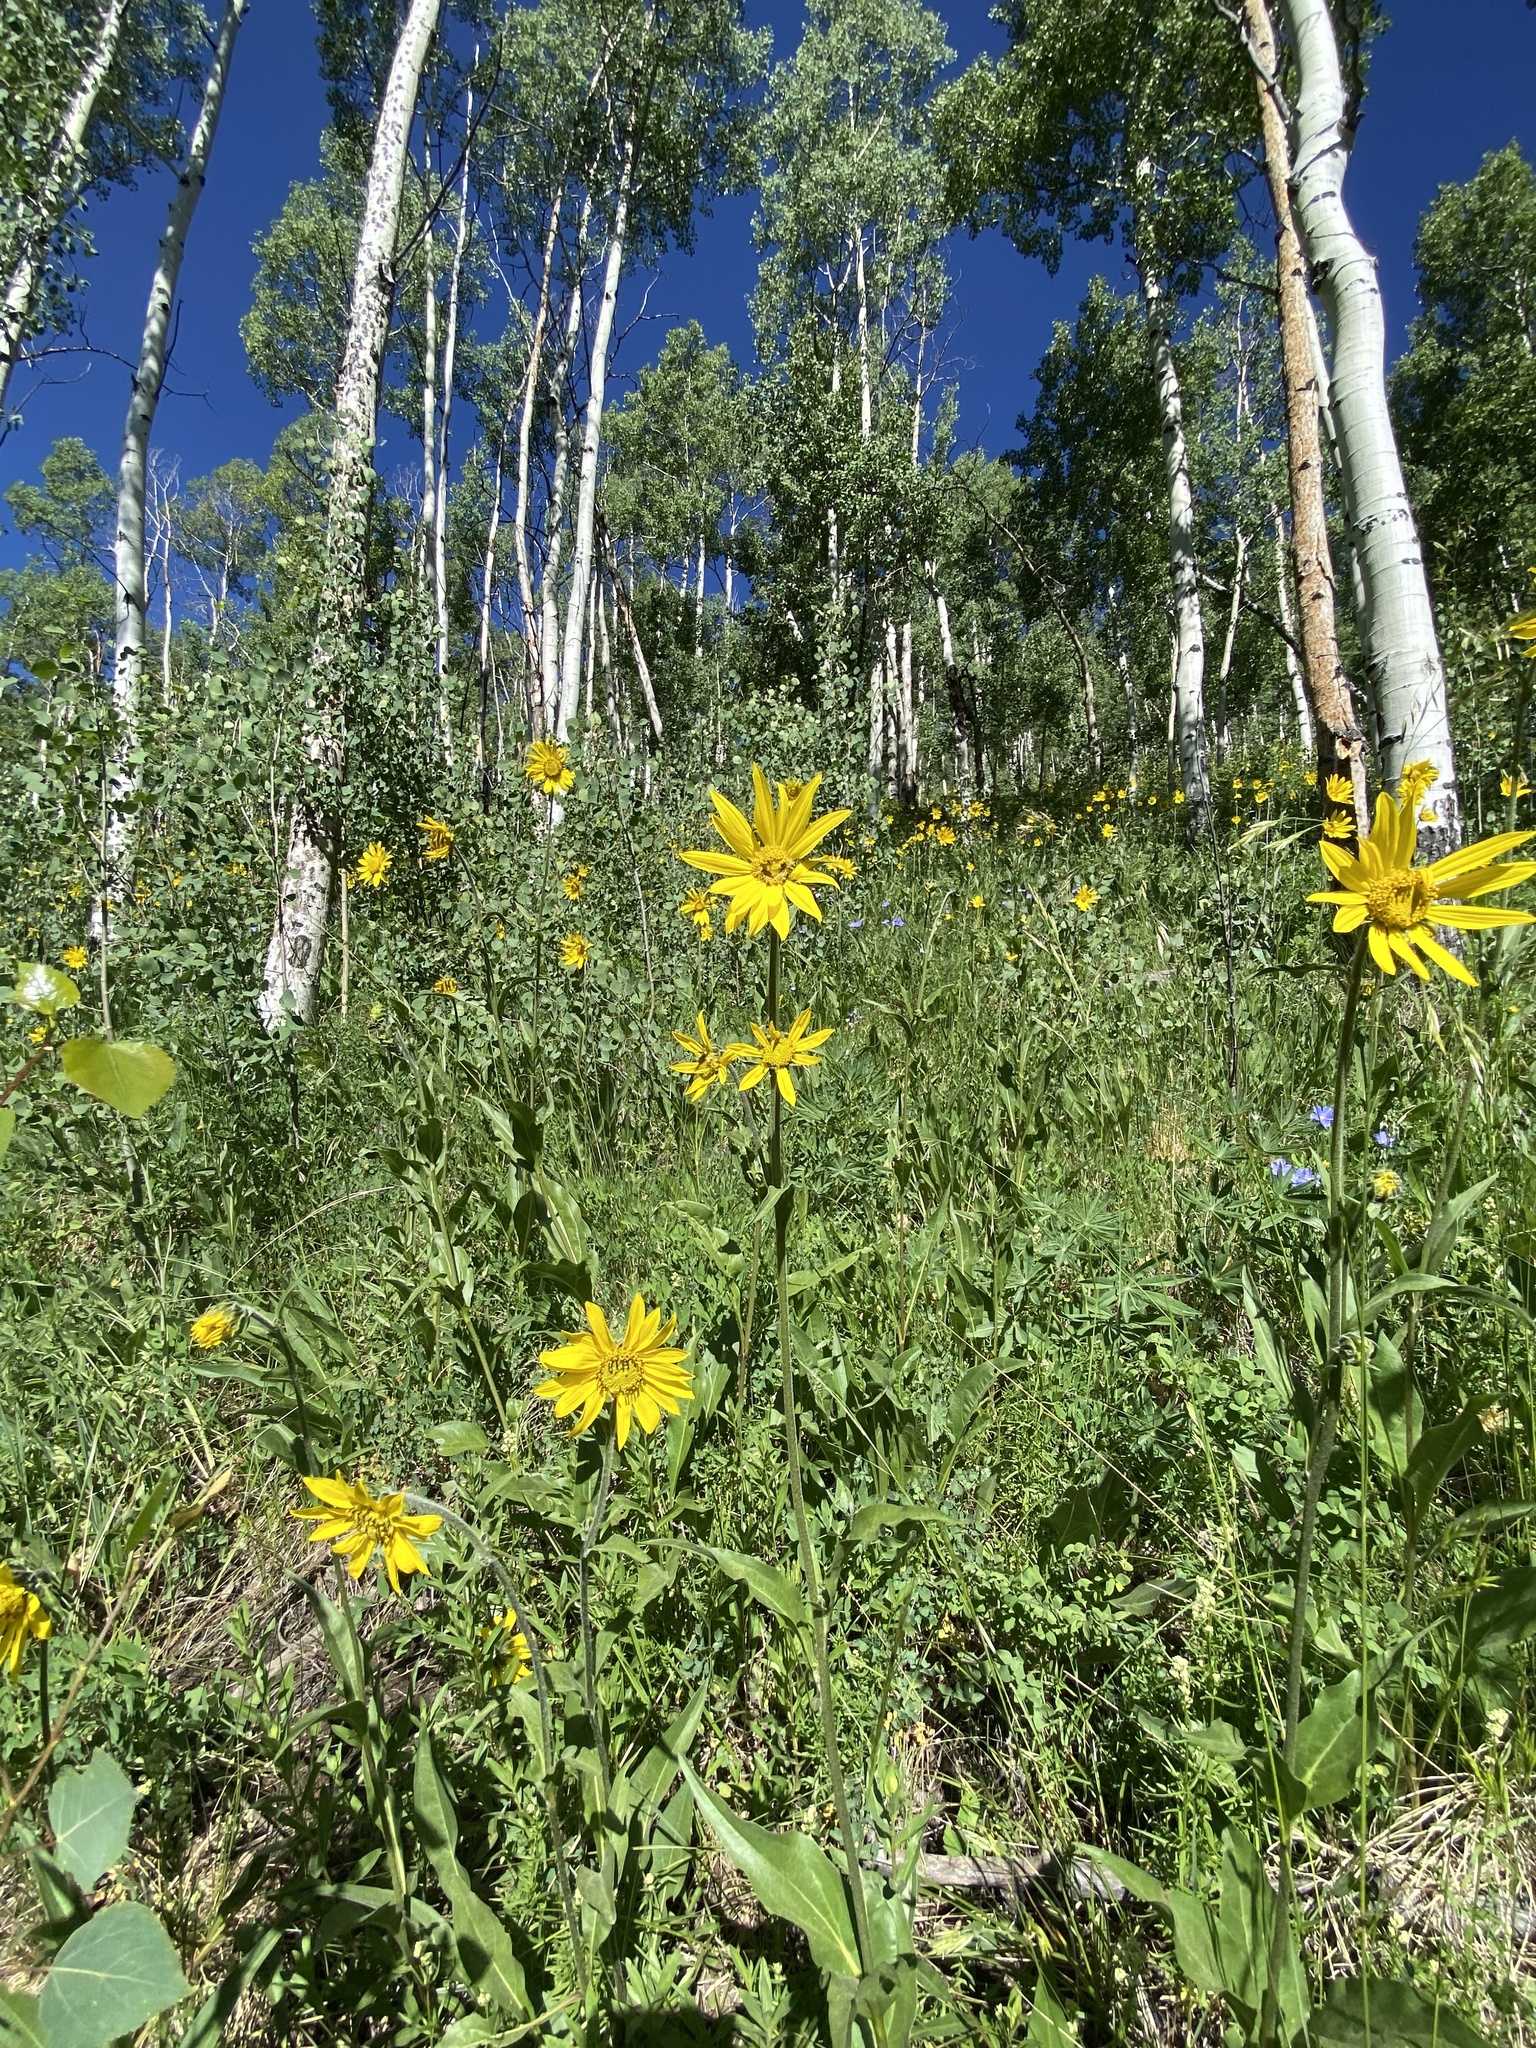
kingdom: Plantae
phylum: Tracheophyta
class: Magnoliopsida
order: Asterales
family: Asteraceae
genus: Helianthella
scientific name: Helianthella quinquenervis
